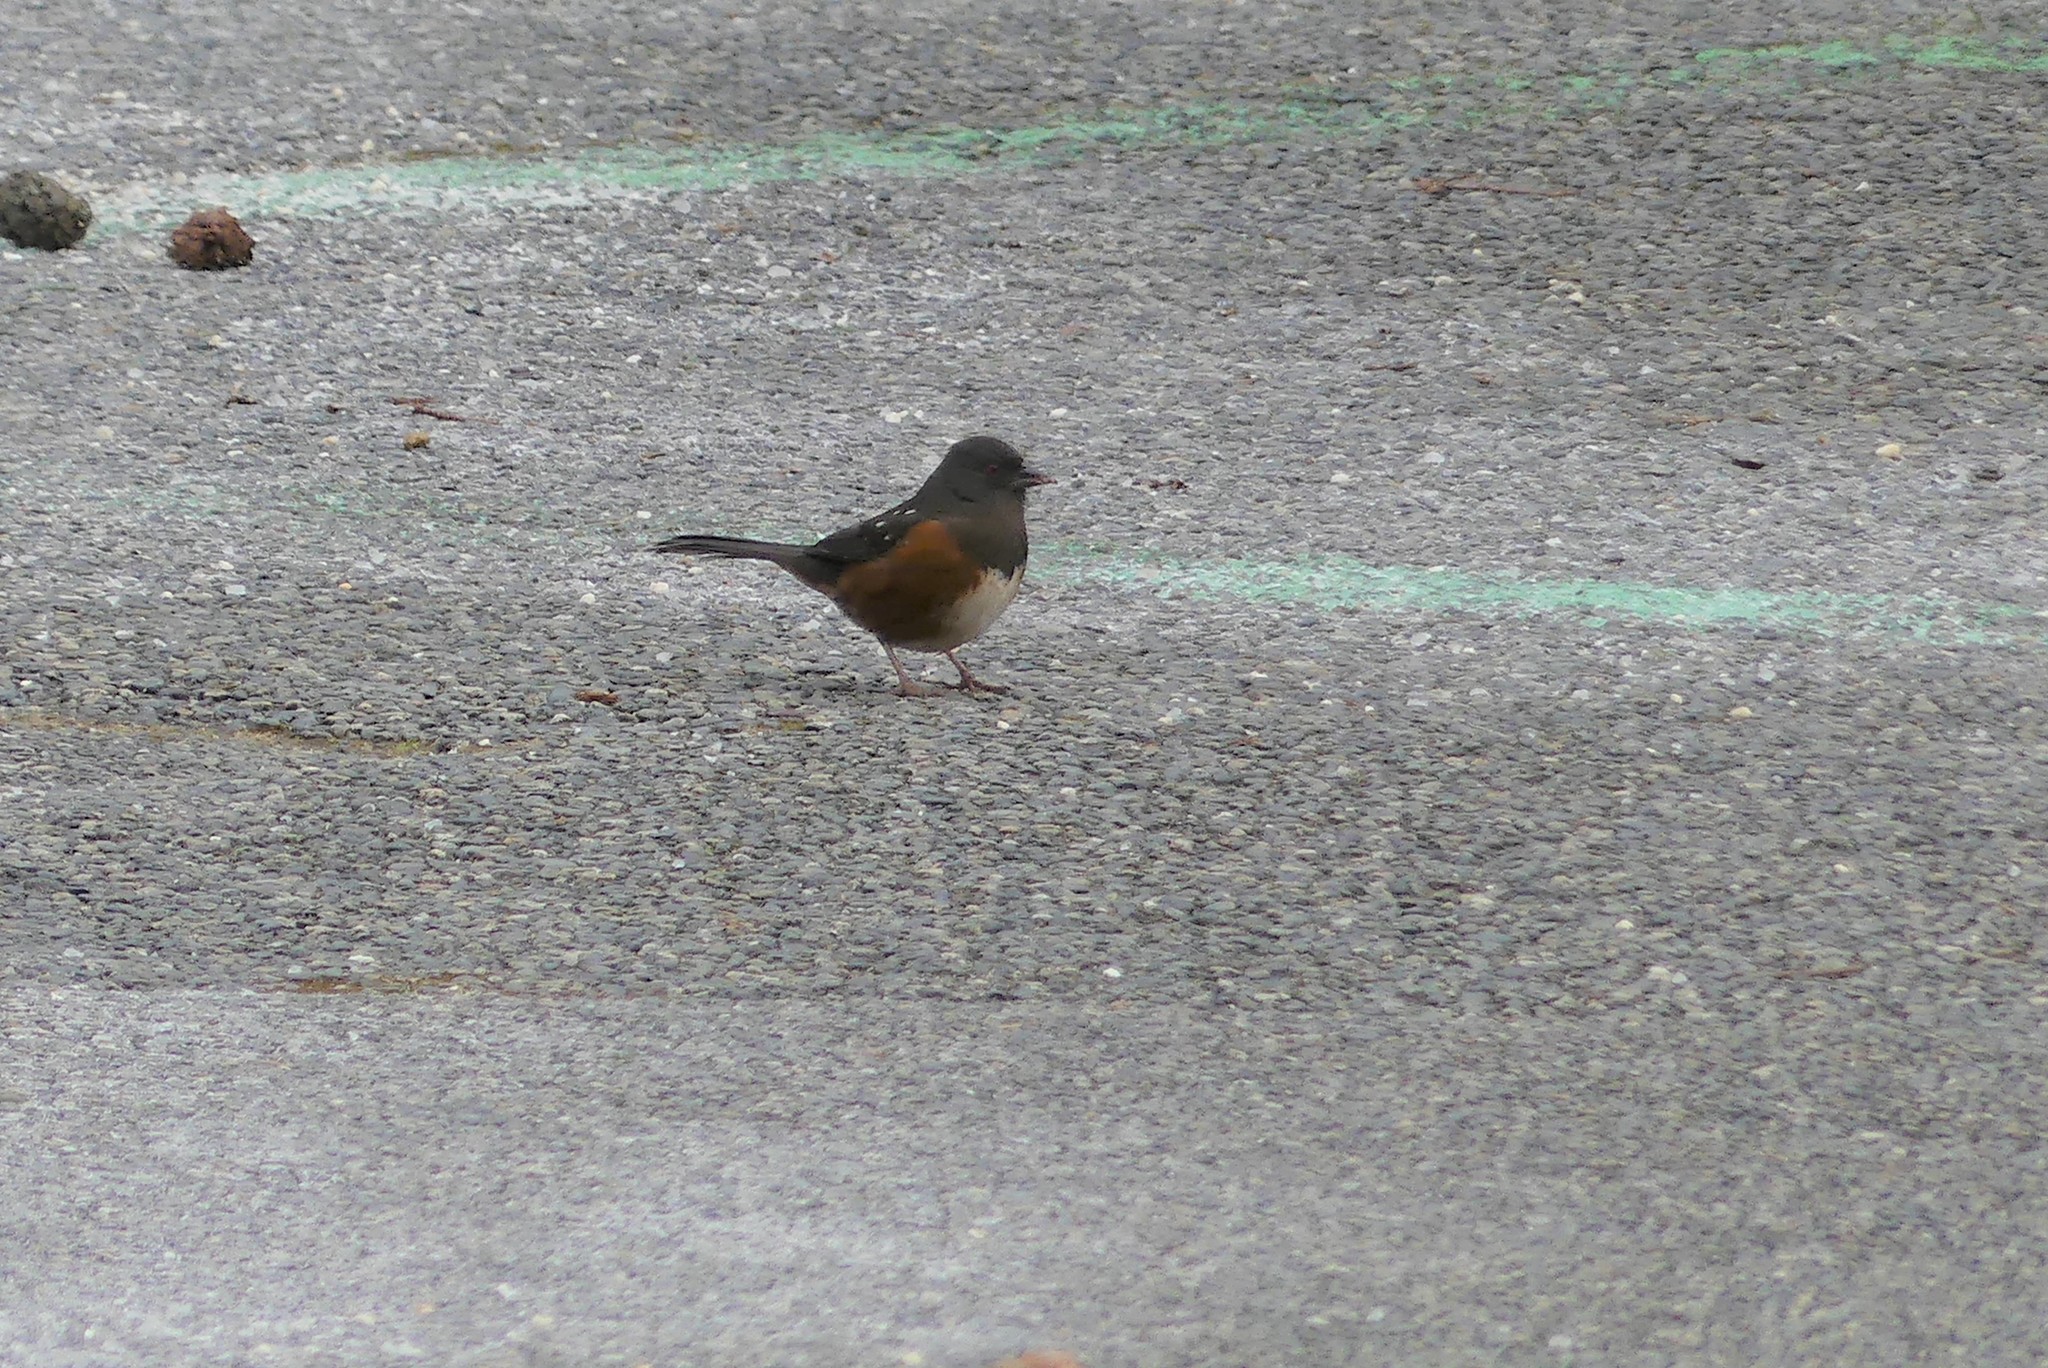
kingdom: Animalia
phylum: Chordata
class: Aves
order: Passeriformes
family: Passerellidae
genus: Pipilo
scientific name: Pipilo maculatus
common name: Spotted towhee
